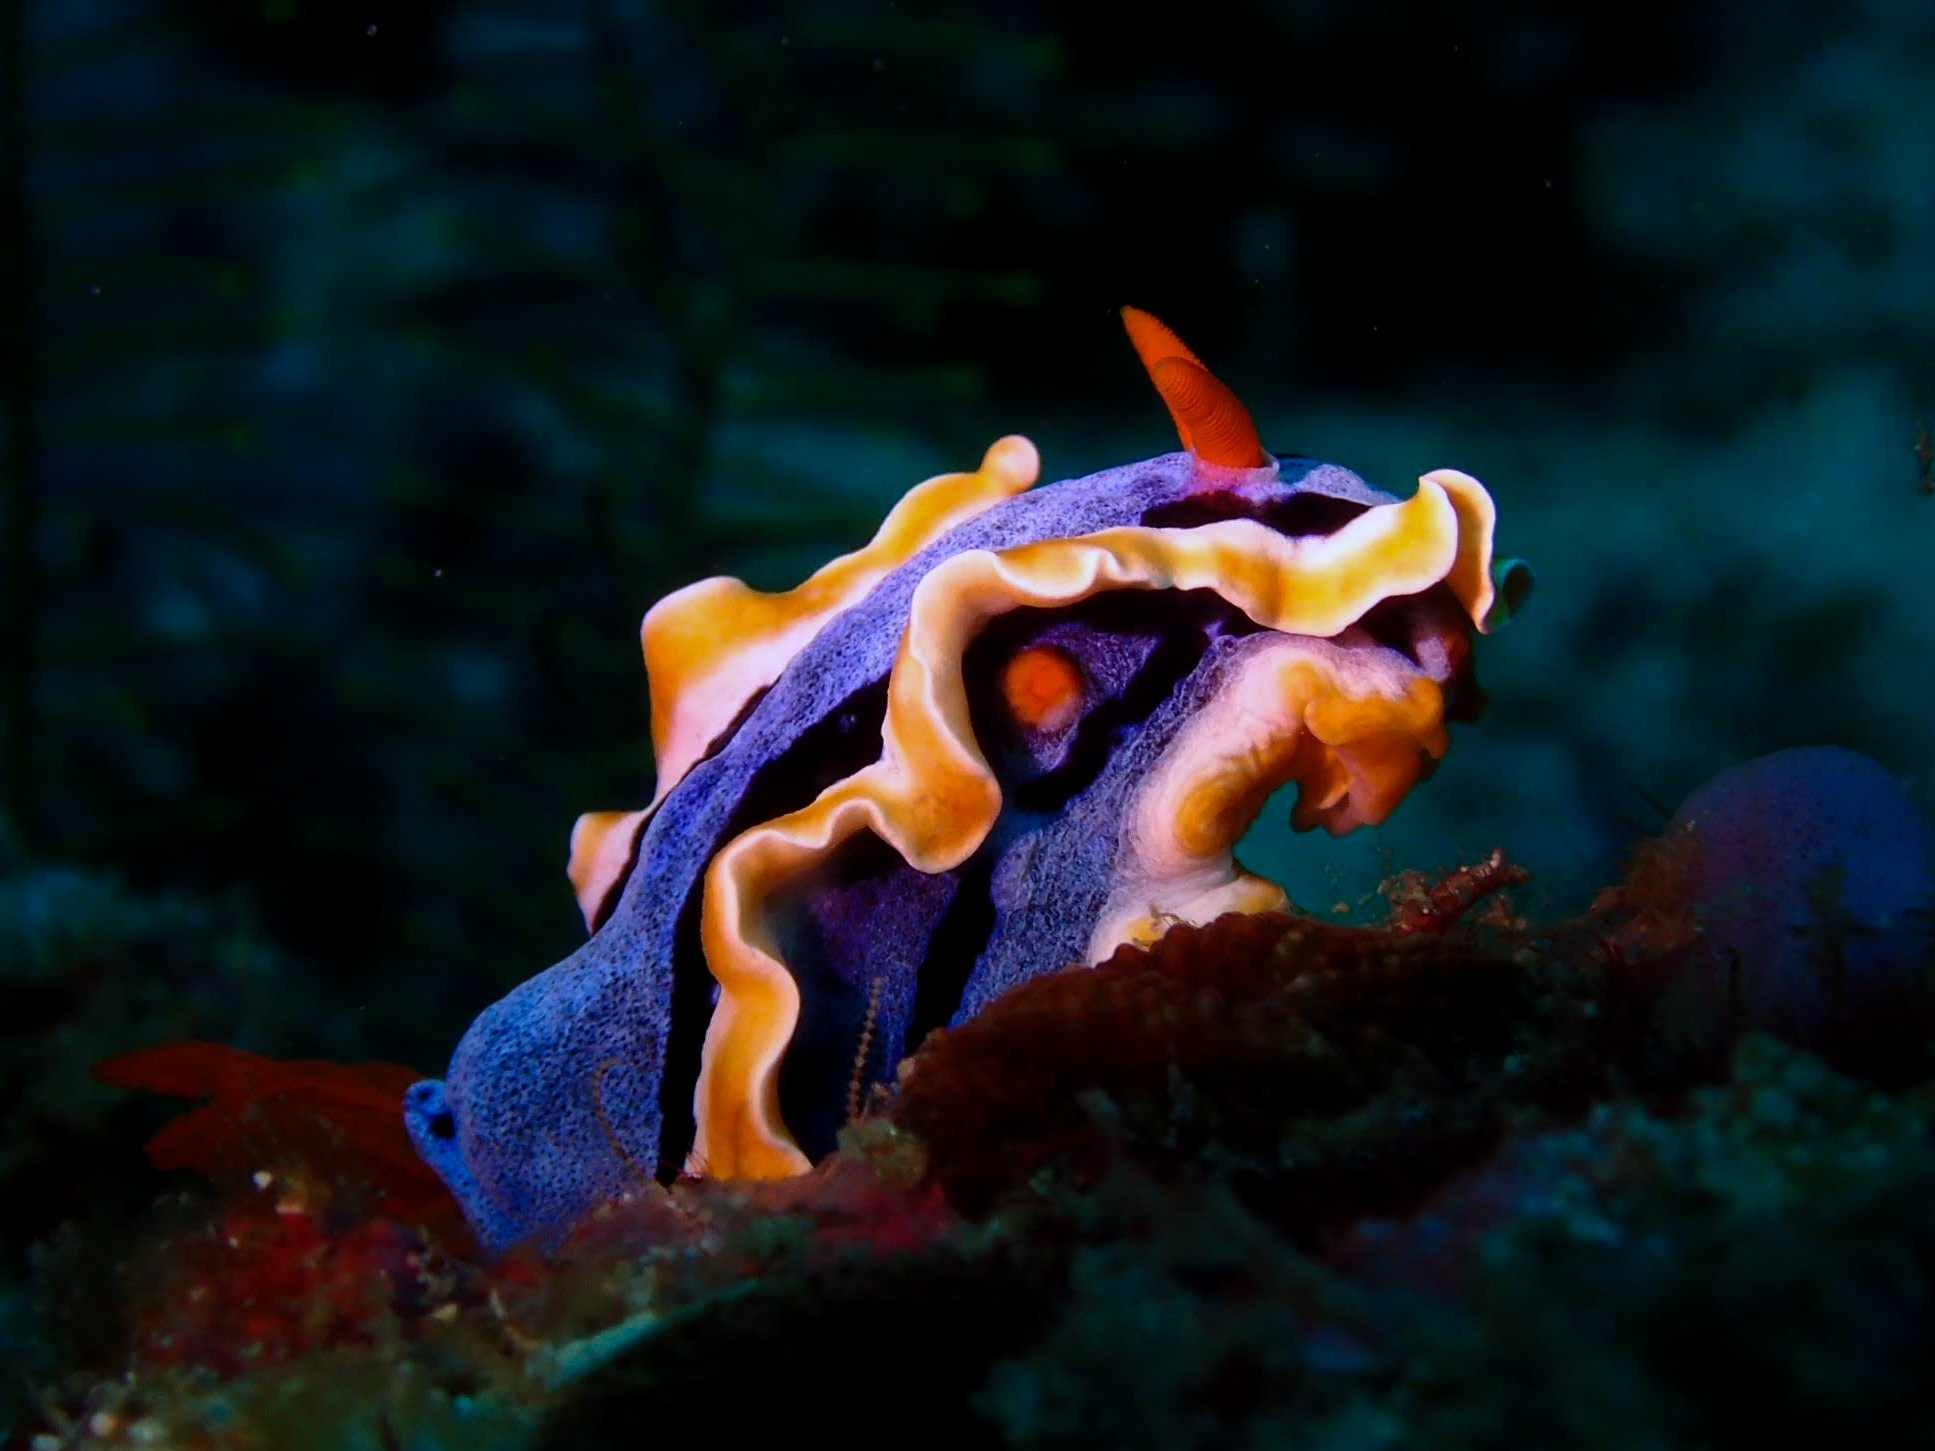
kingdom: Animalia
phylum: Mollusca
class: Gastropoda
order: Nudibranchia
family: Chromodorididae
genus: Chromodoris
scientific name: Chromodoris annae
